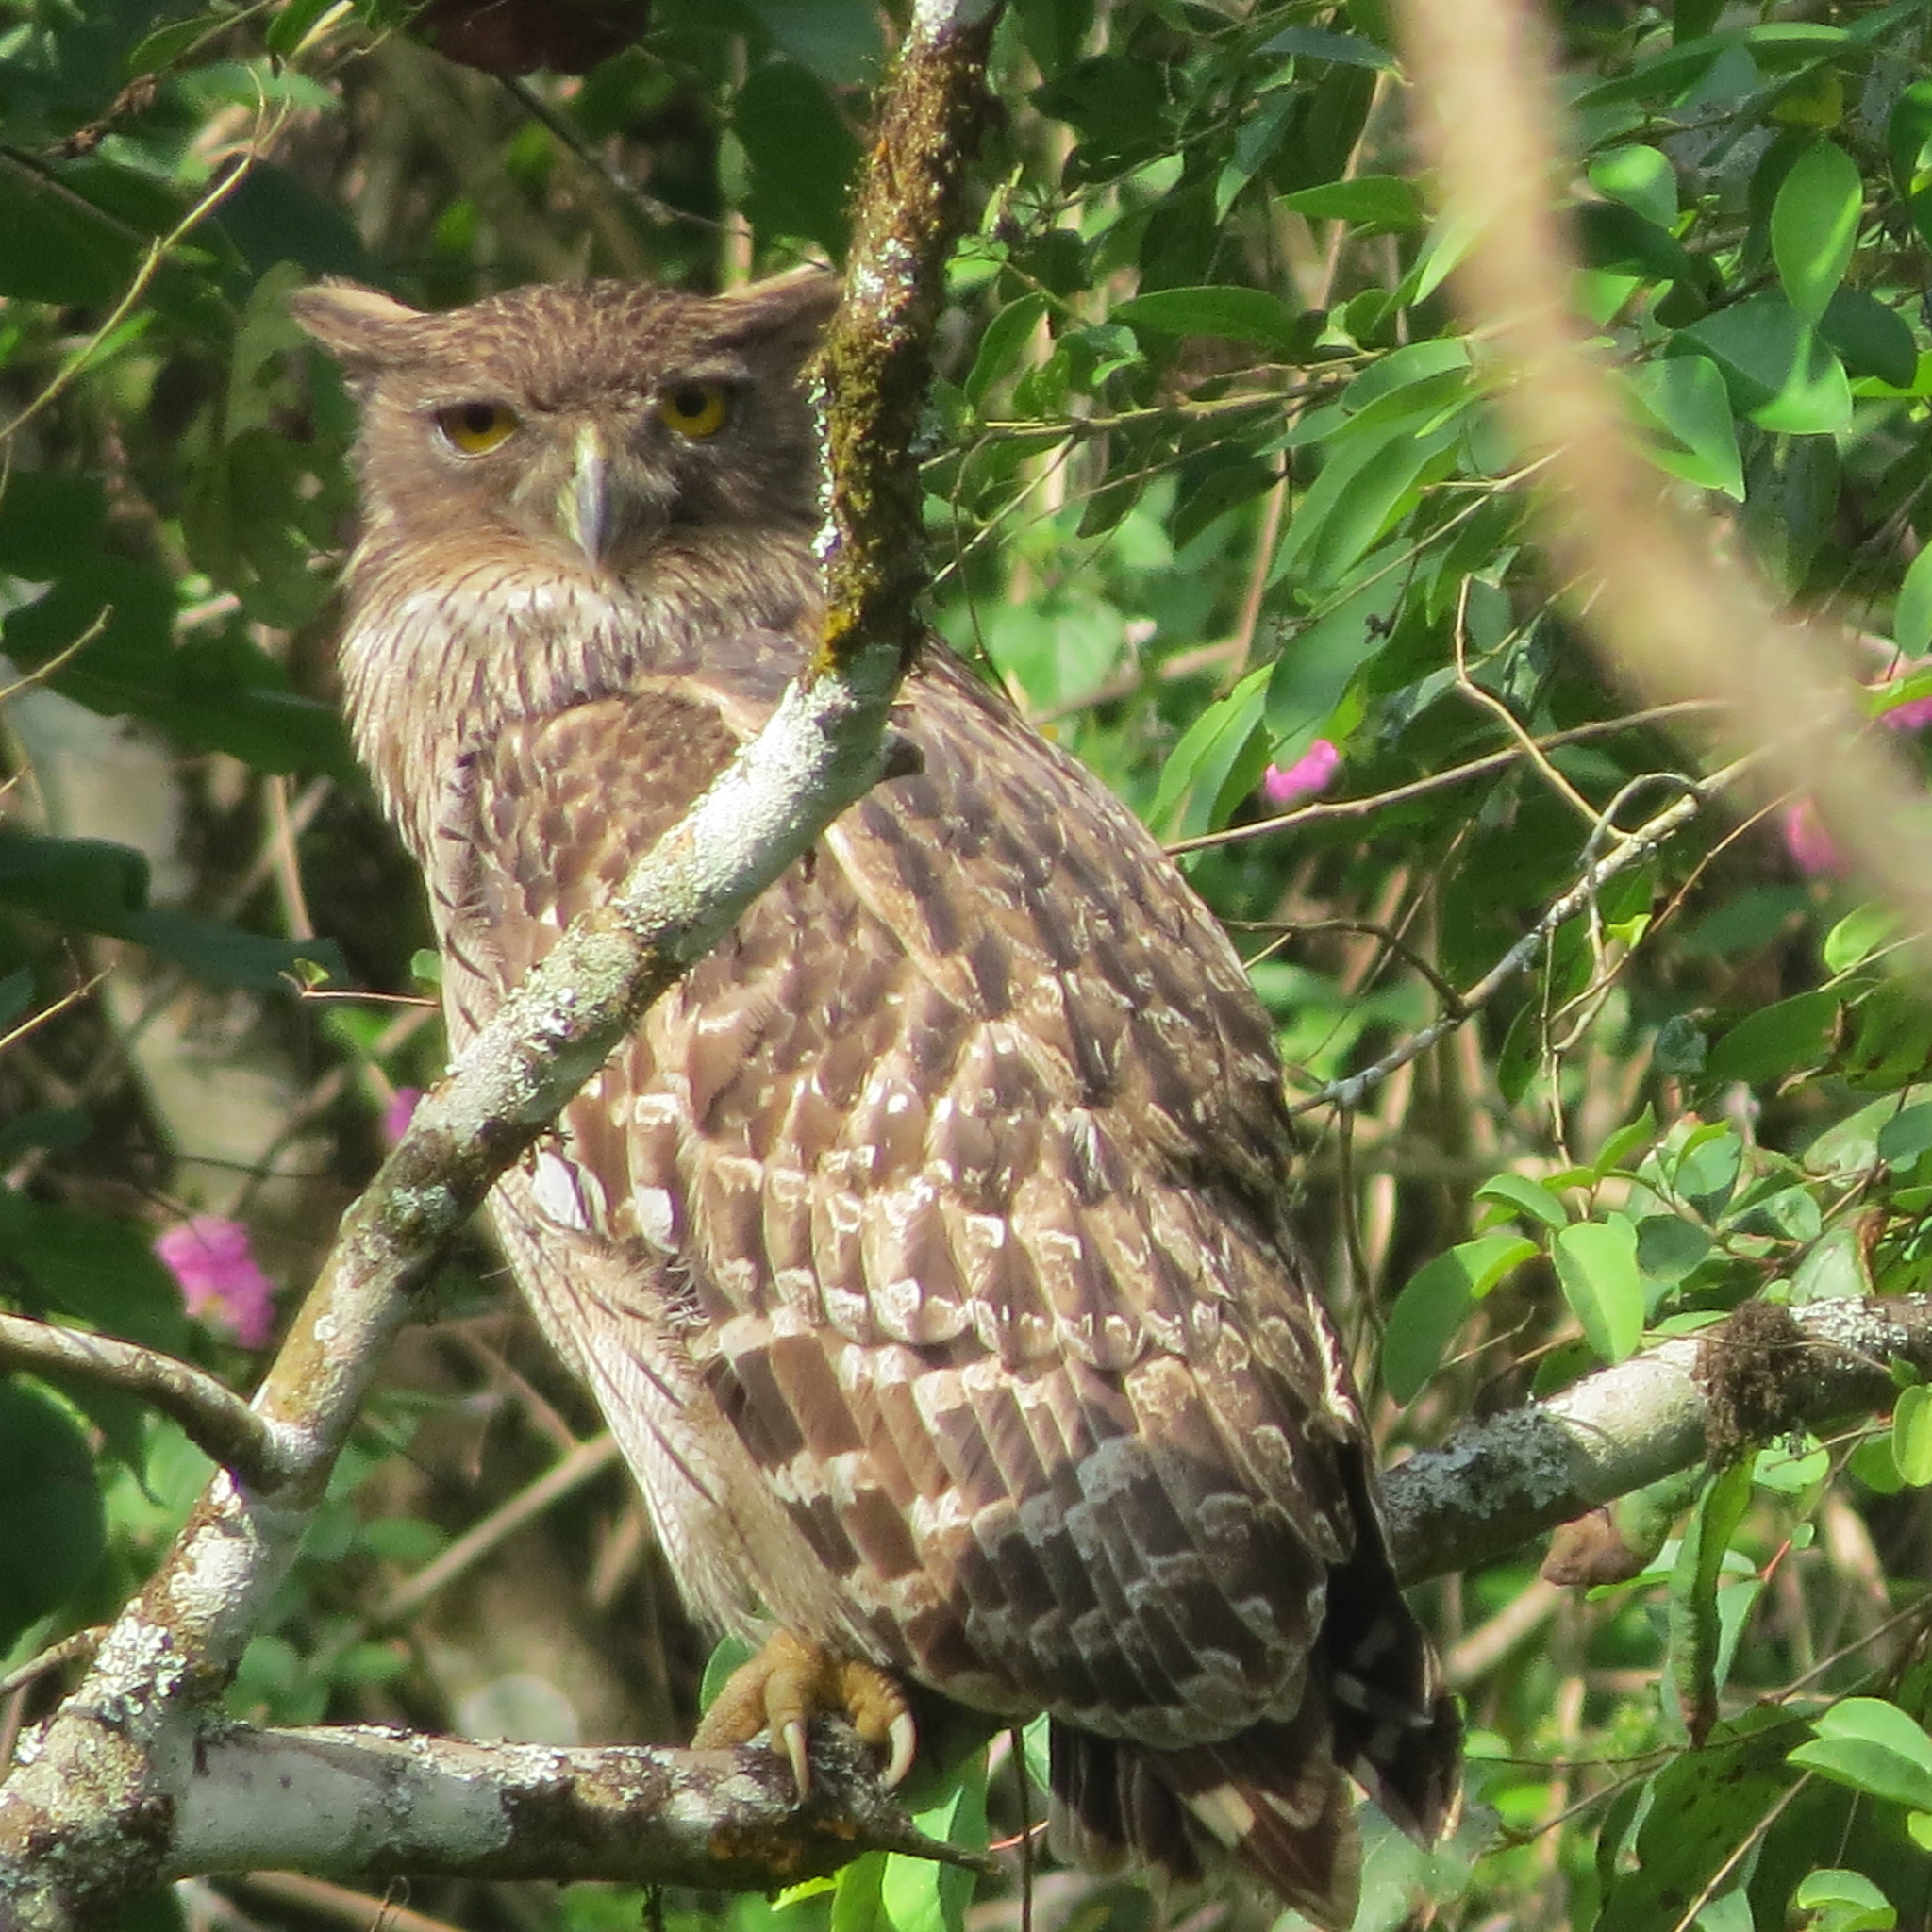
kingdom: Animalia
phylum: Chordata
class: Aves
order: Strigiformes
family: Strigidae
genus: Ketupa
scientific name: Ketupa zeylonensis
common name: Brown fish owl
